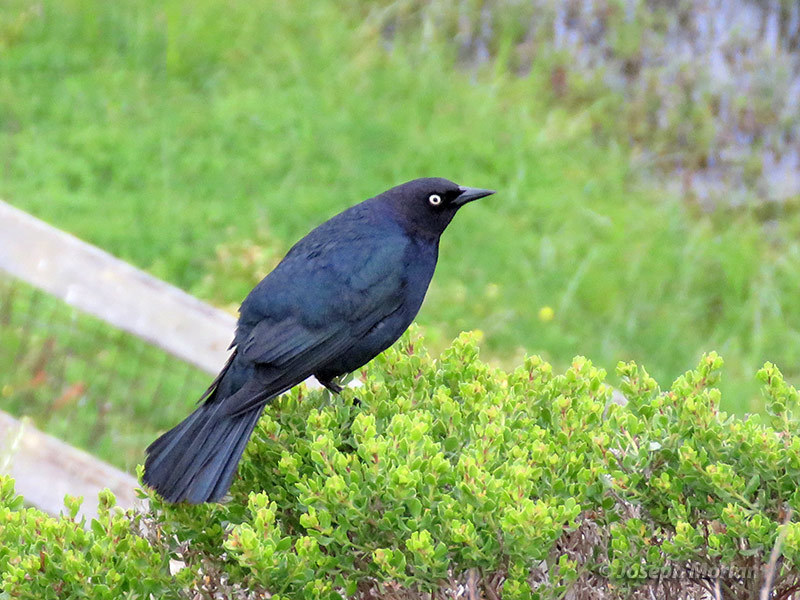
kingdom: Animalia
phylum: Chordata
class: Aves
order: Passeriformes
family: Icteridae
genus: Euphagus
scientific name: Euphagus cyanocephalus
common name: Brewer's blackbird
